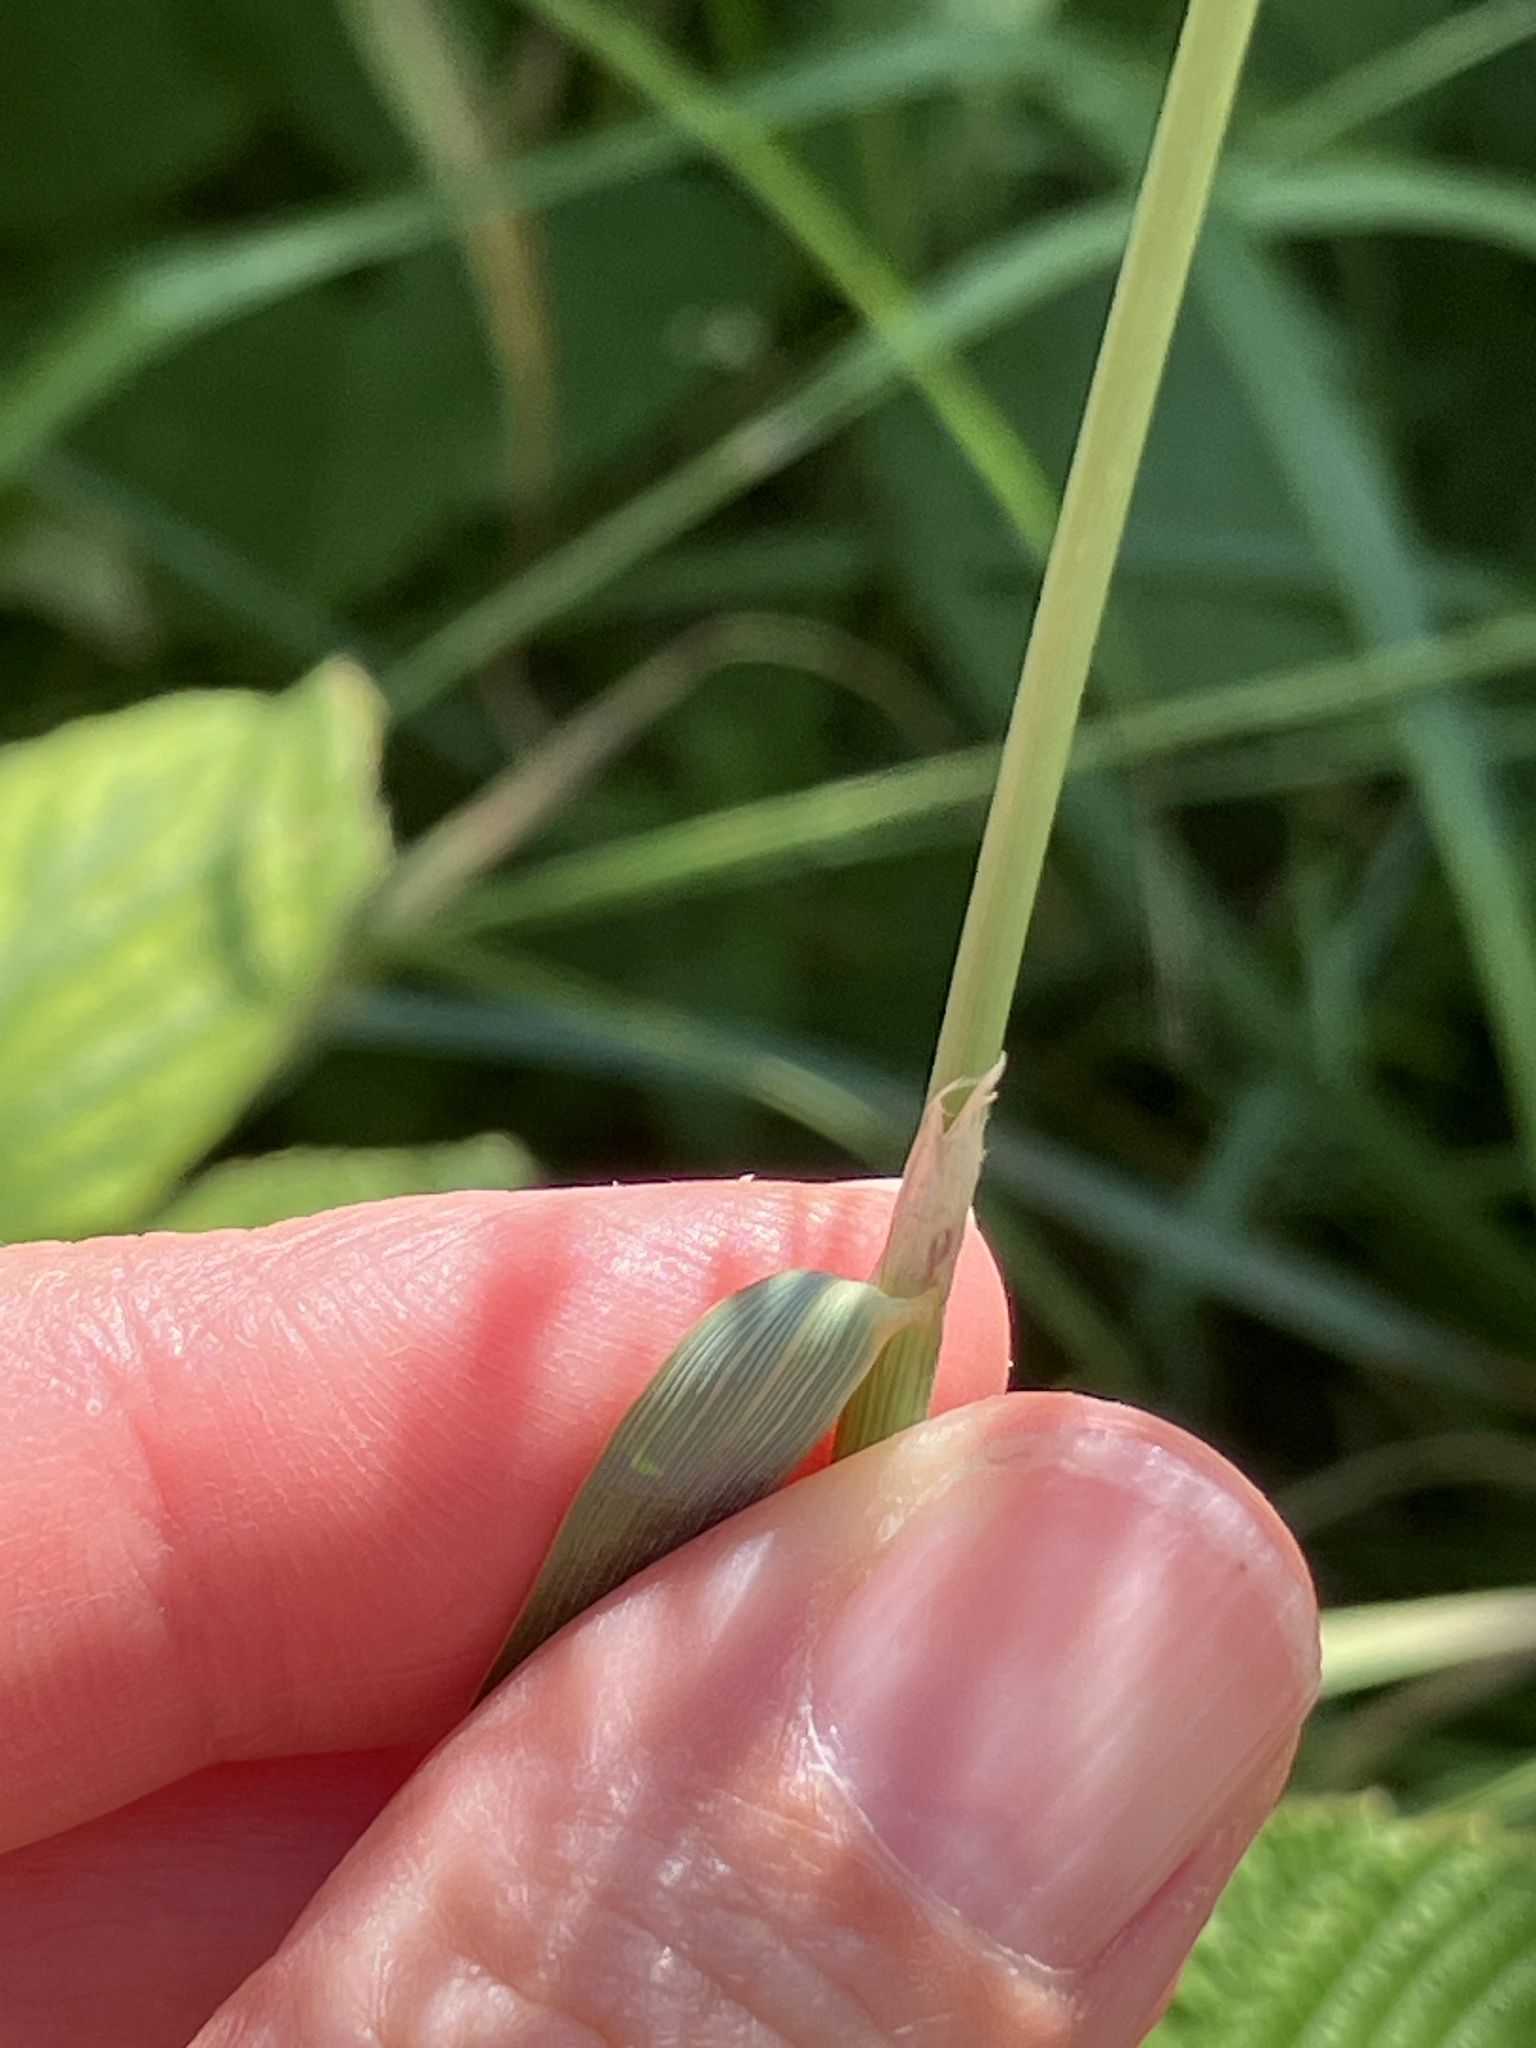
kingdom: Plantae
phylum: Tracheophyta
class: Liliopsida
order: Poales
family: Poaceae
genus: Calamagrostis
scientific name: Calamagrostis epigejos
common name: Wood small-reed
